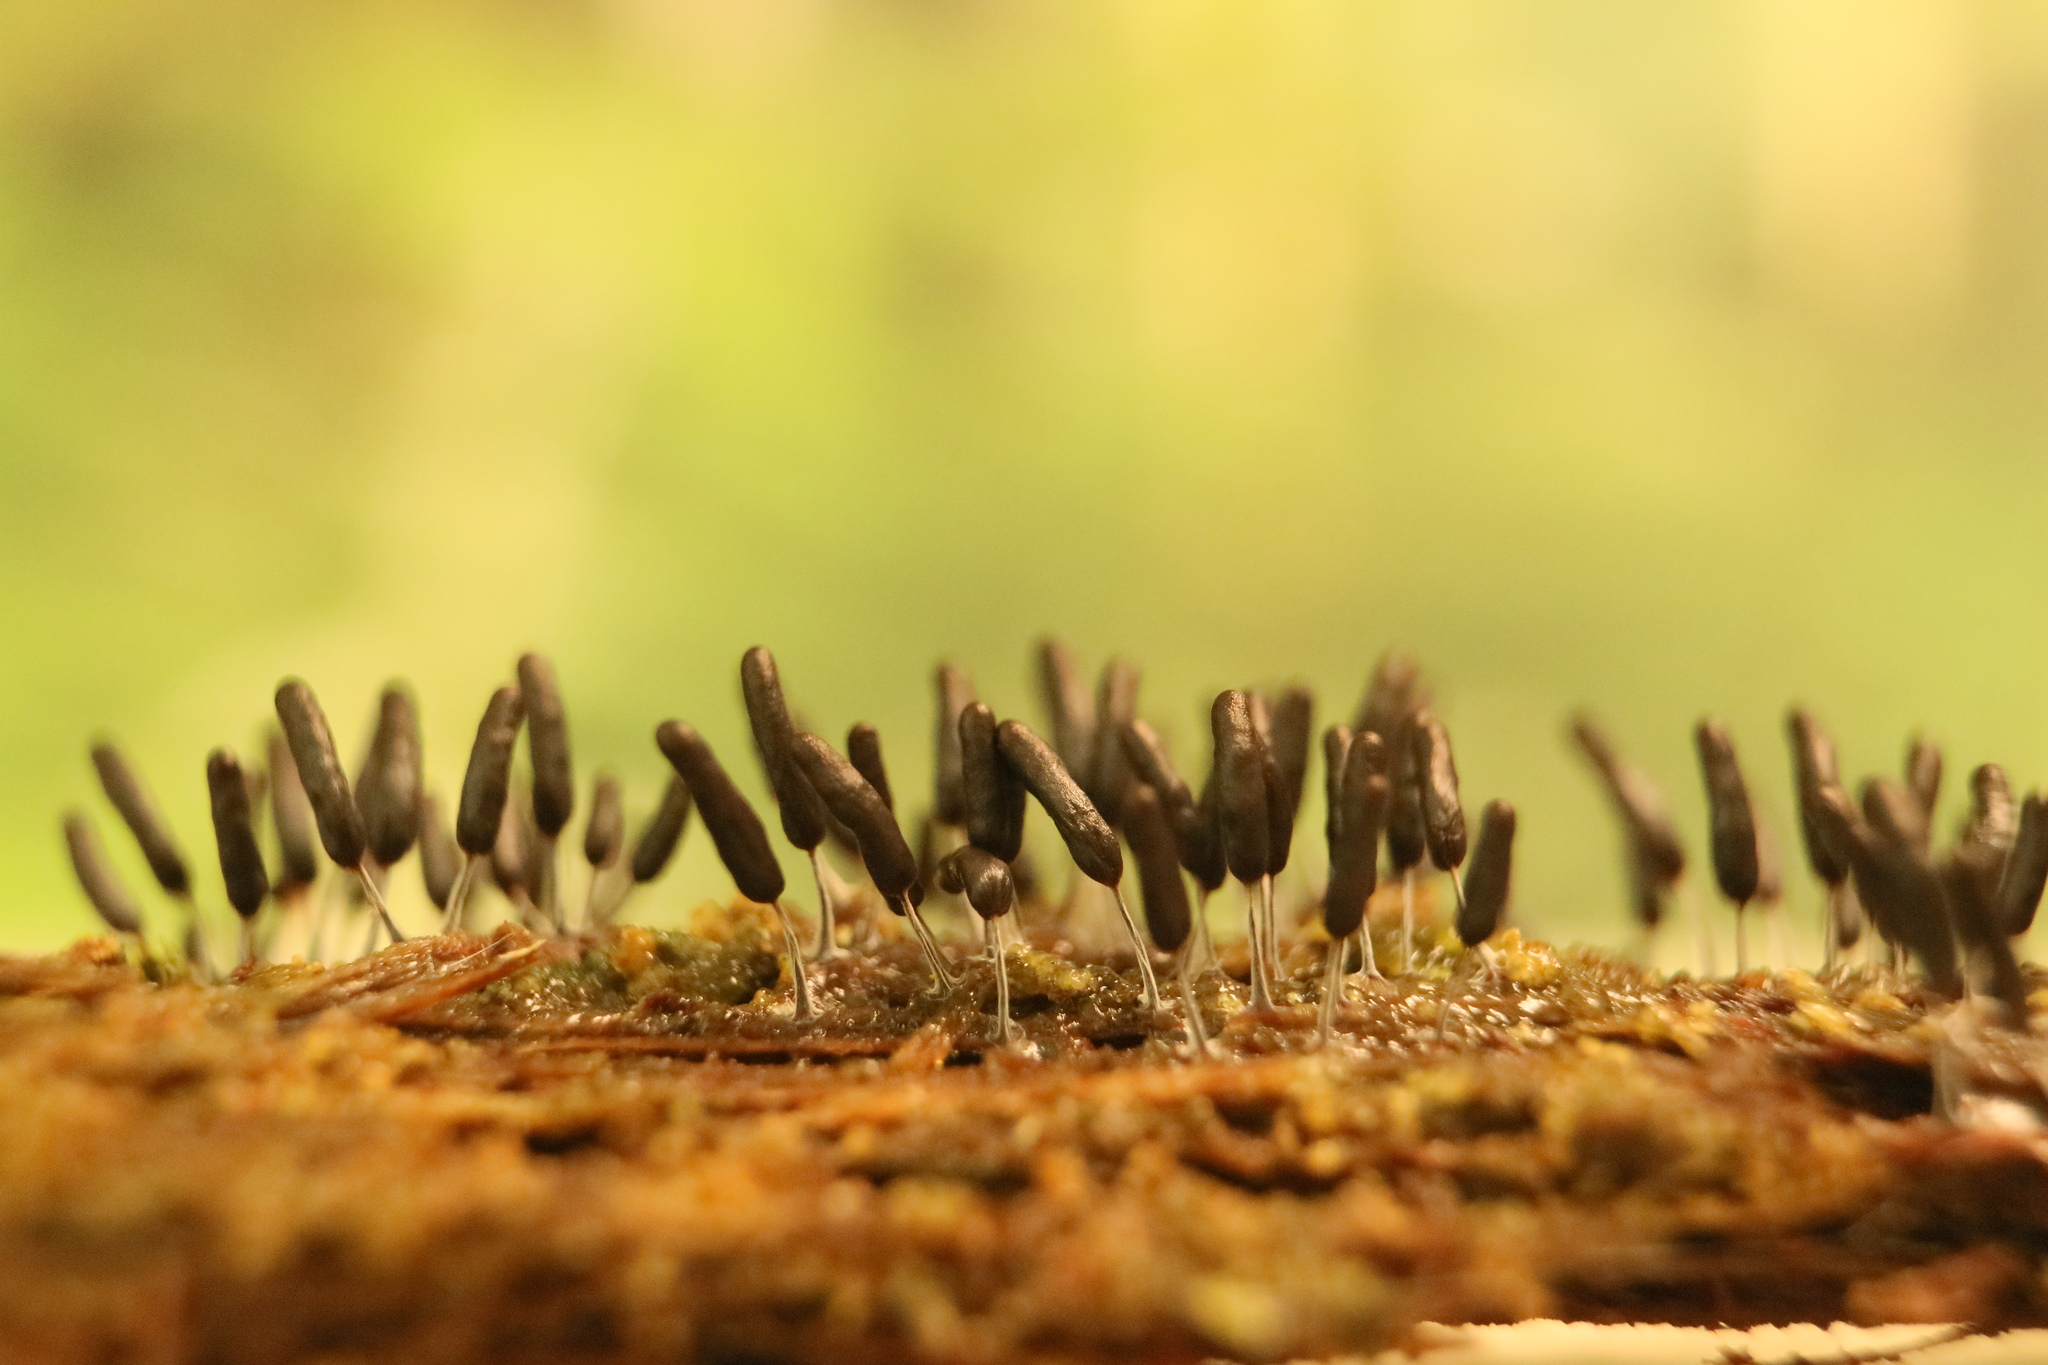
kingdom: Protozoa
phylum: Mycetozoa
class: Myxomycetes
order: Stemonitidales
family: Stemonitidaceae
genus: Stemonitopsis
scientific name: Stemonitopsis typhina
